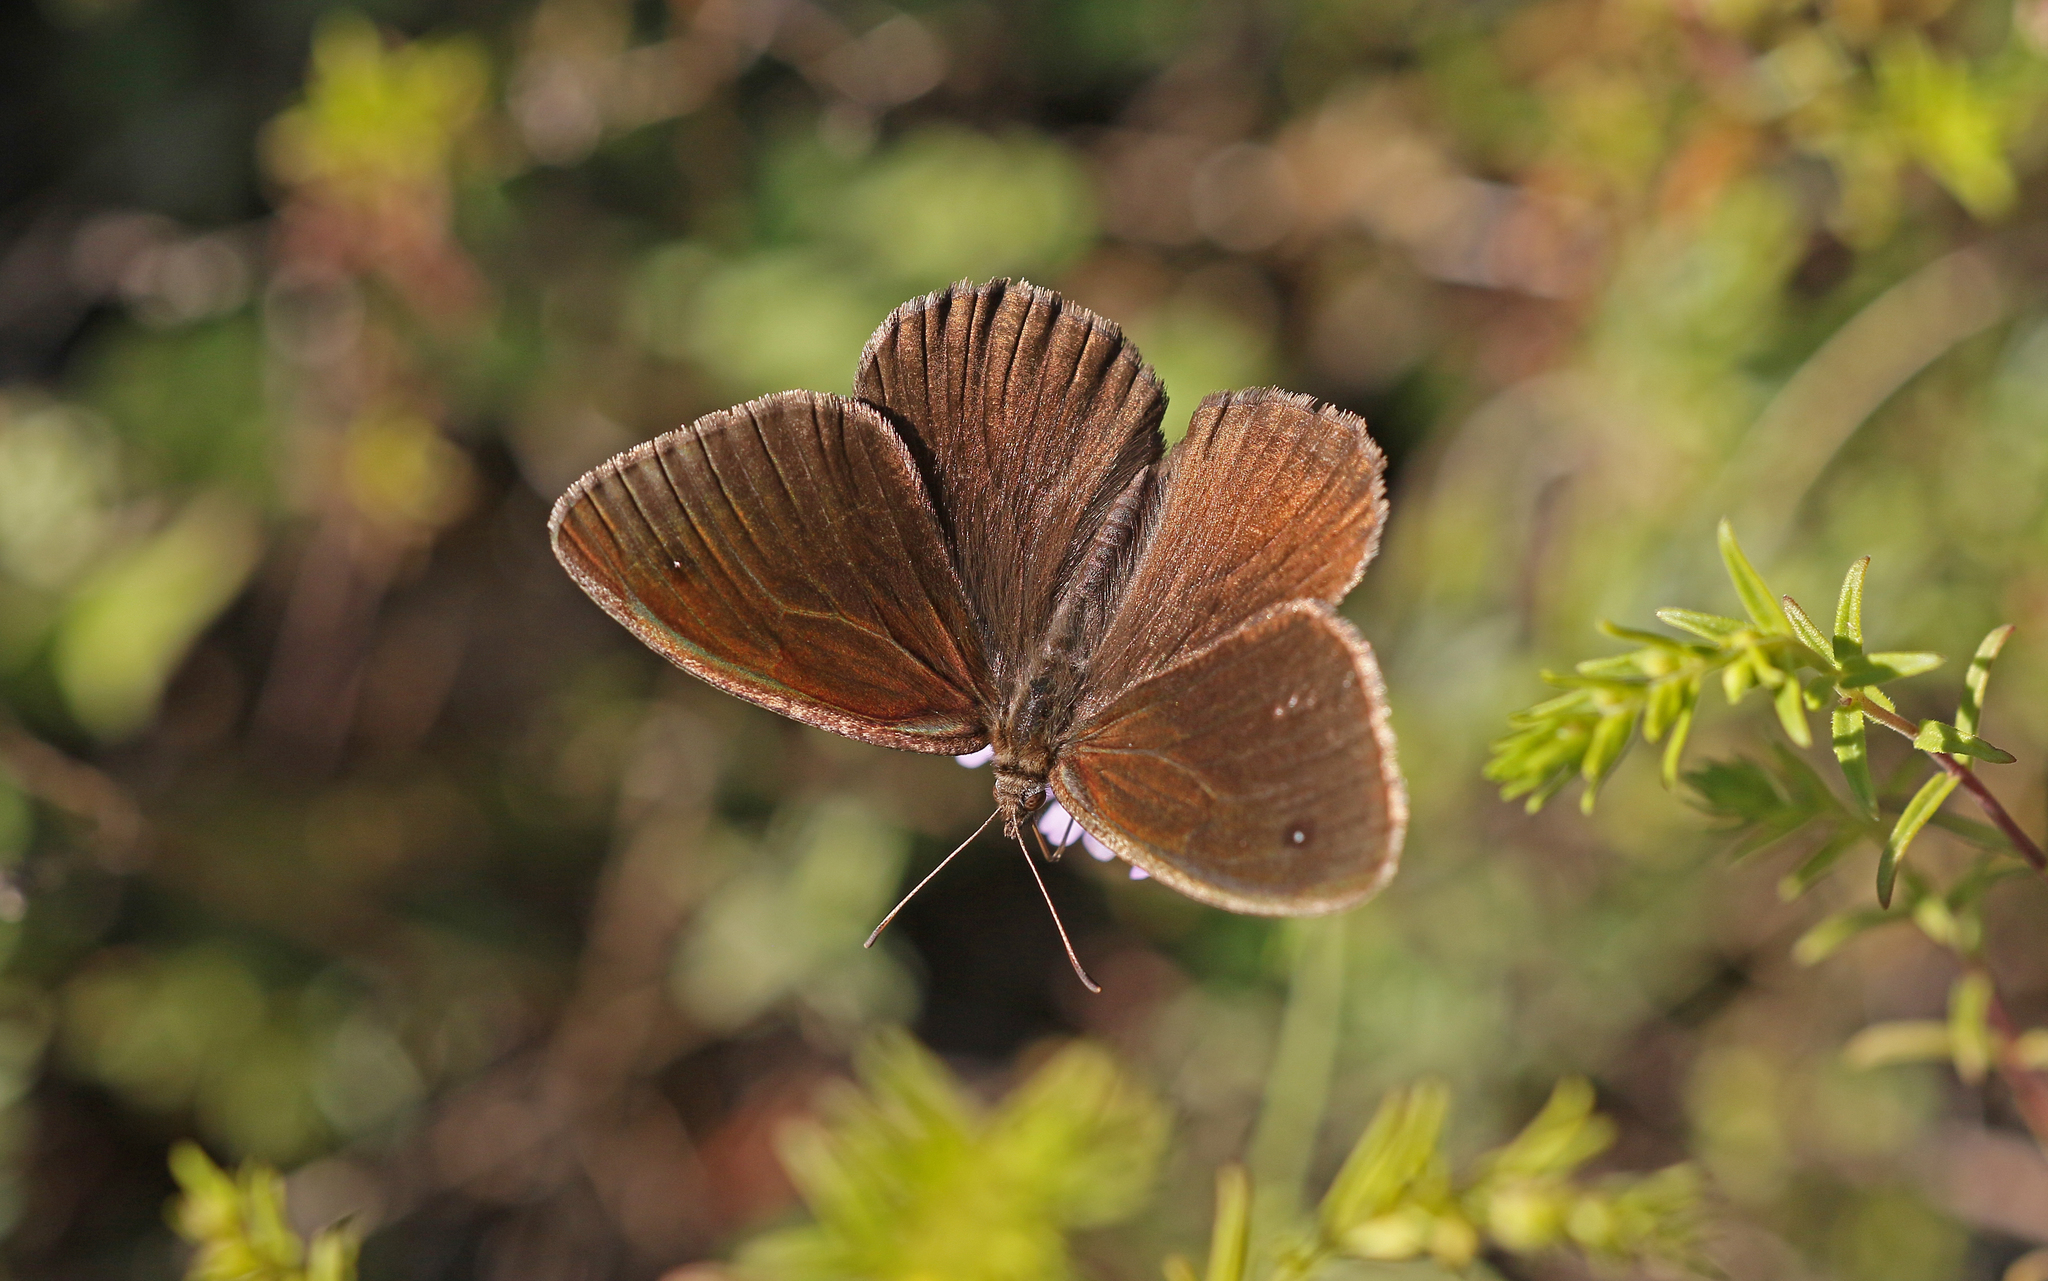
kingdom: Animalia
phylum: Arthropoda
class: Insecta
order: Lepidoptera
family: Nymphalidae
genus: Satyrus
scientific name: Satyrus actaea
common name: Black satyr
